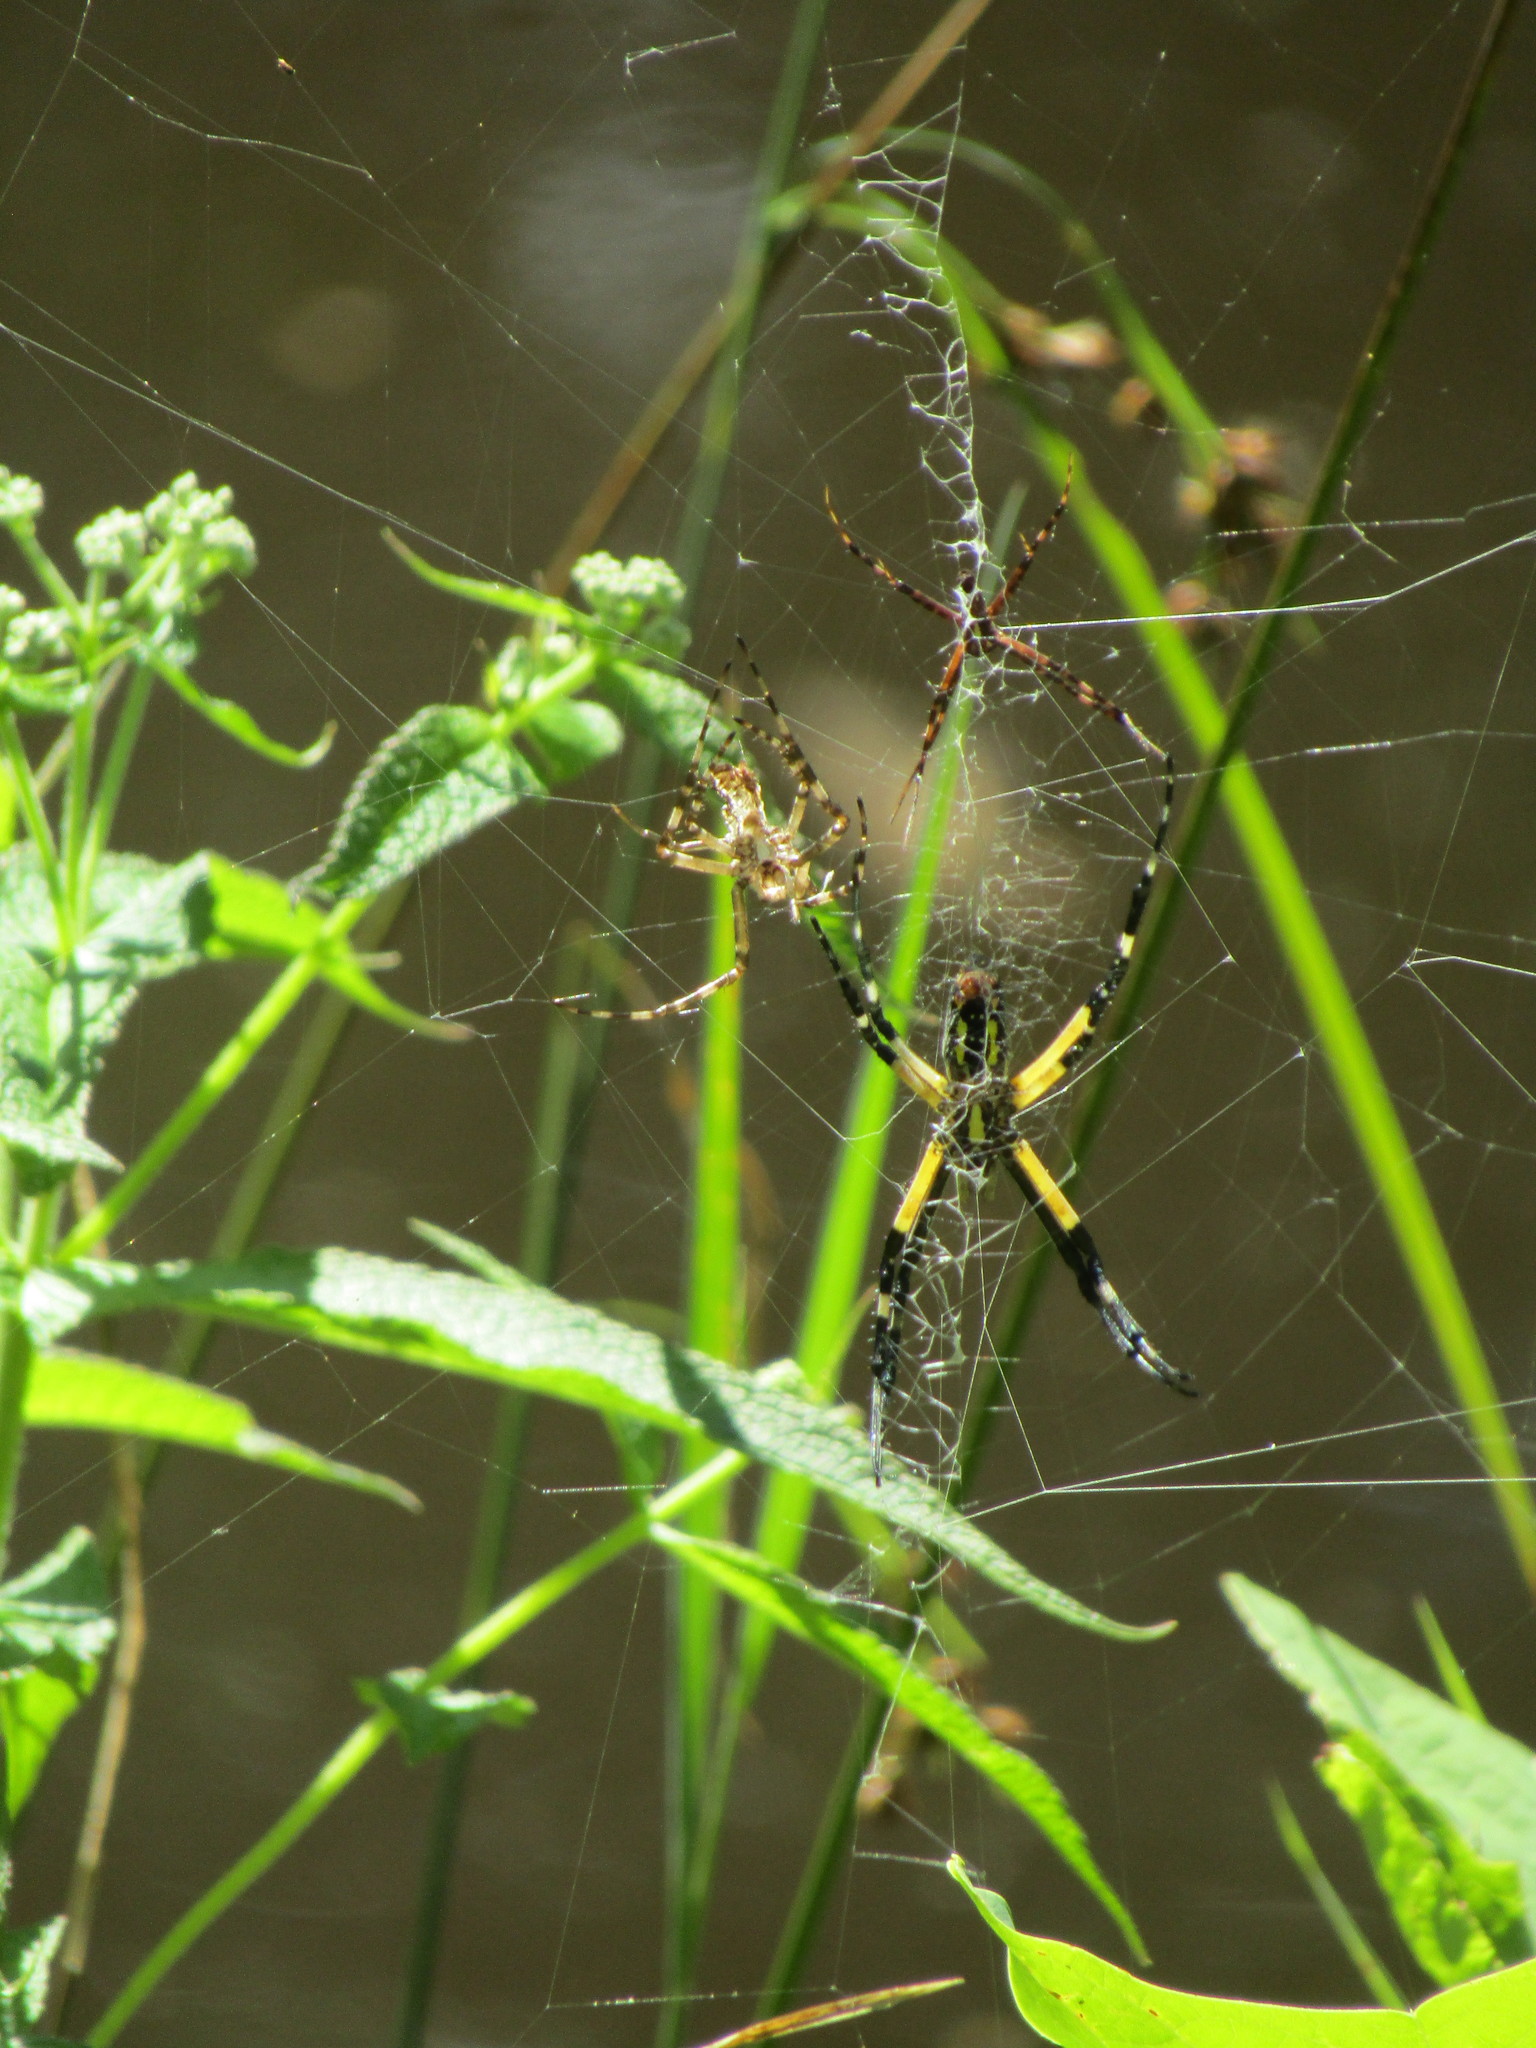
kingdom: Animalia
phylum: Arthropoda
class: Arachnida
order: Araneae
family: Araneidae
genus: Argiope
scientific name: Argiope aurantia
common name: Orb weavers
